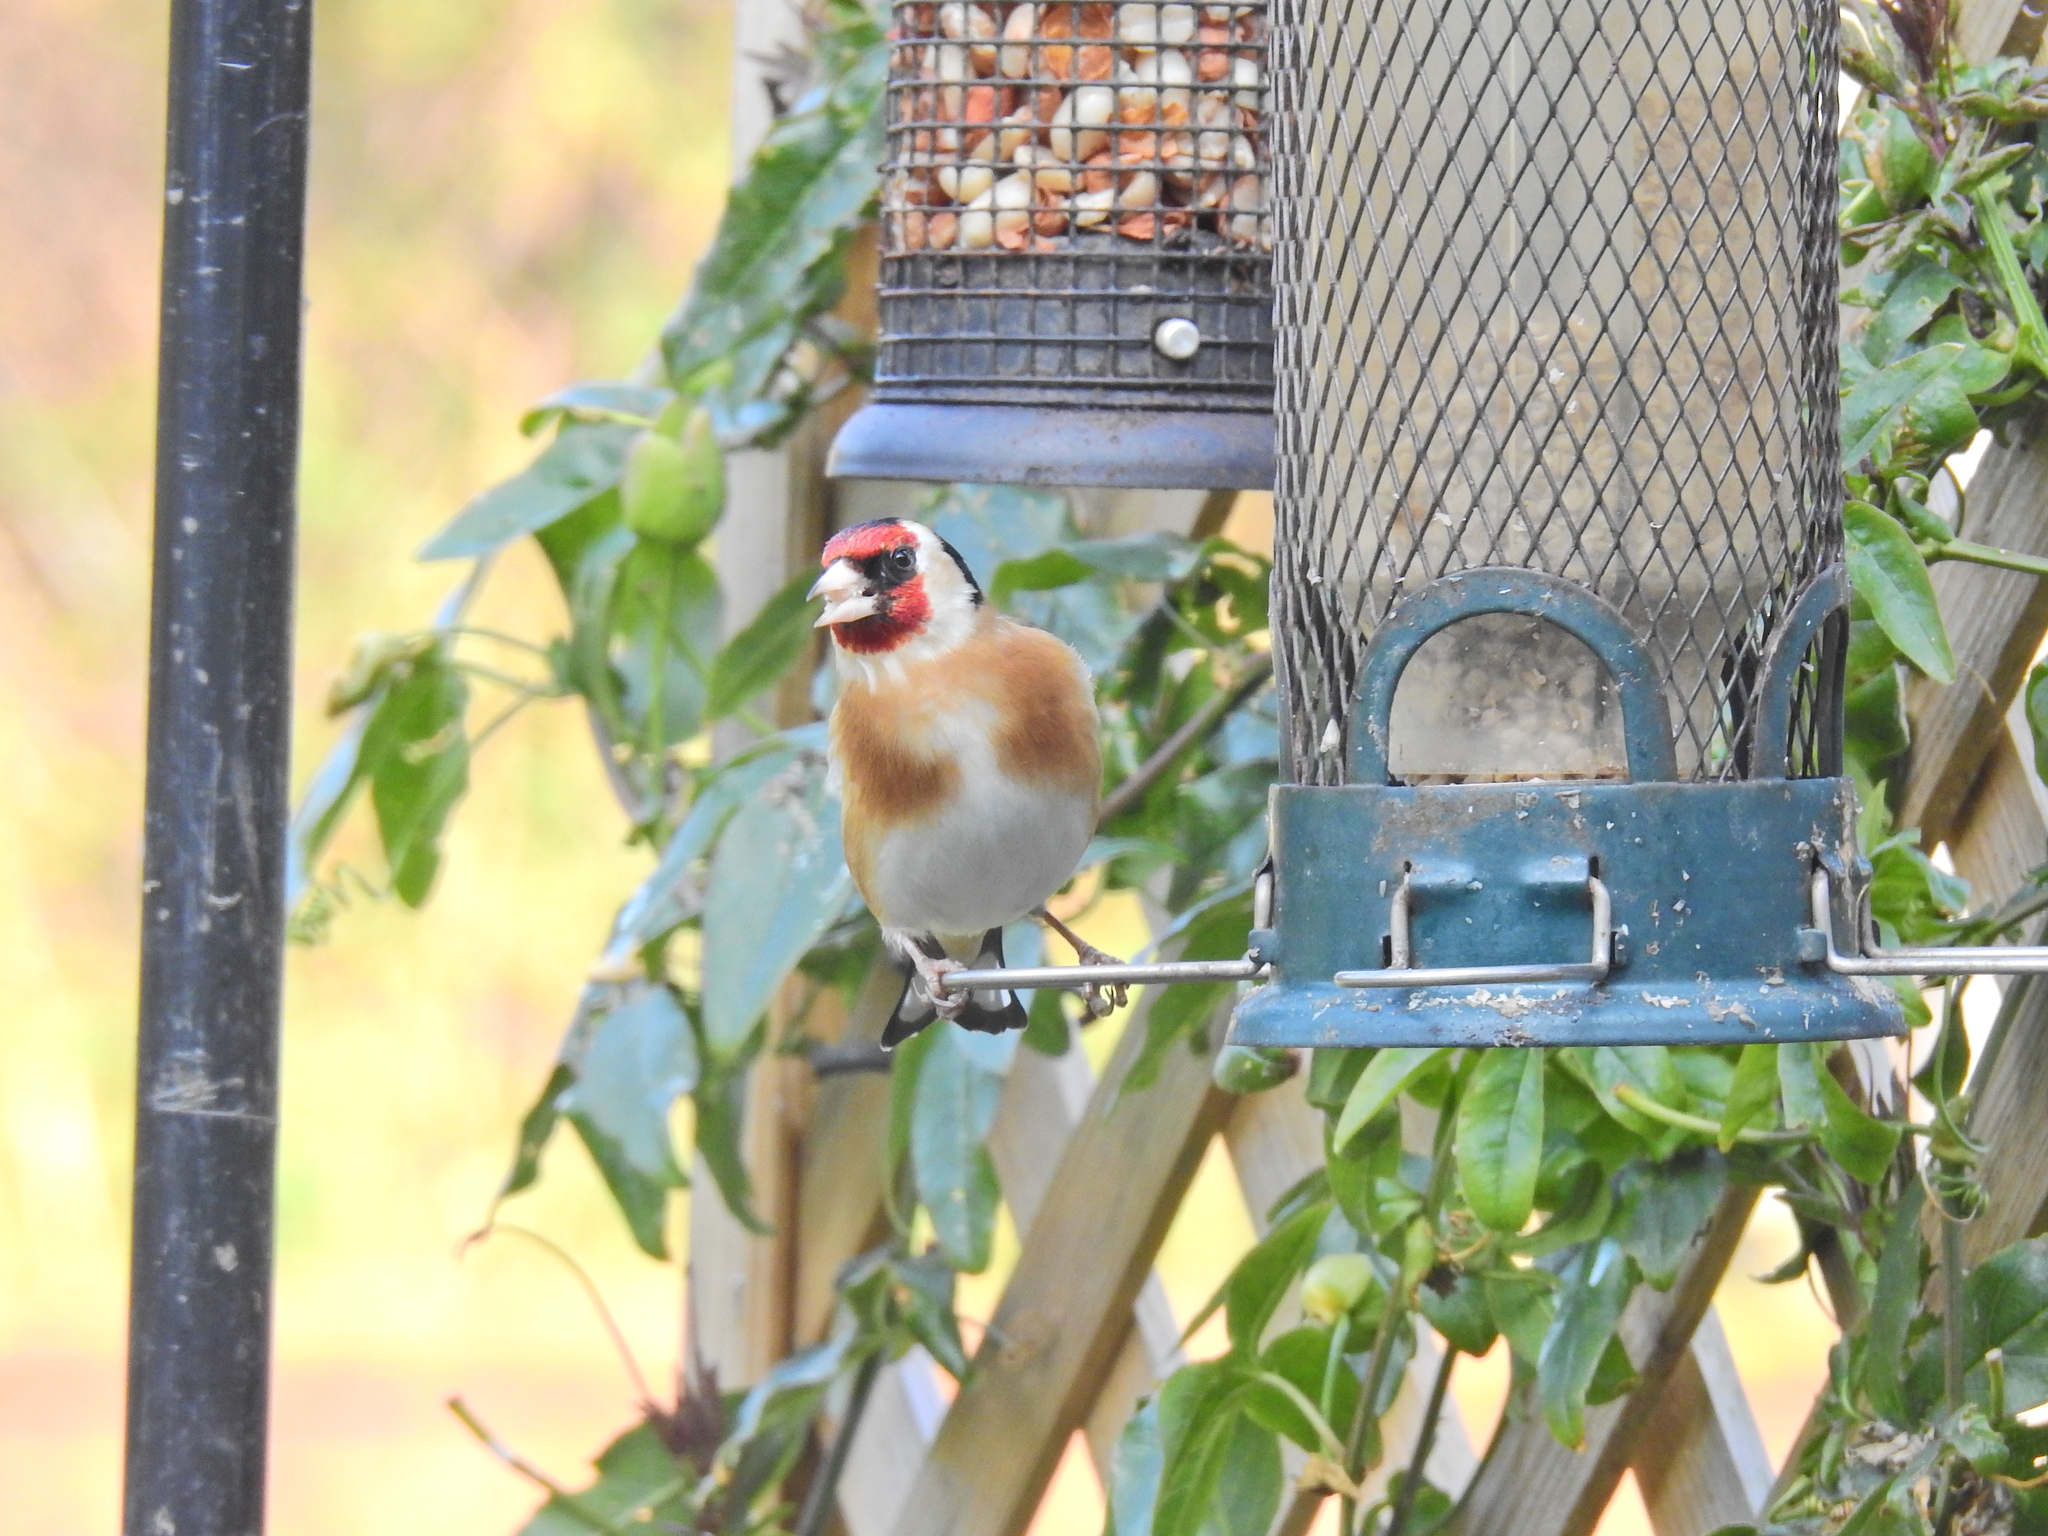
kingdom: Animalia
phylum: Chordata
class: Aves
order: Passeriformes
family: Fringillidae
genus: Carduelis
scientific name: Carduelis carduelis
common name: European goldfinch
